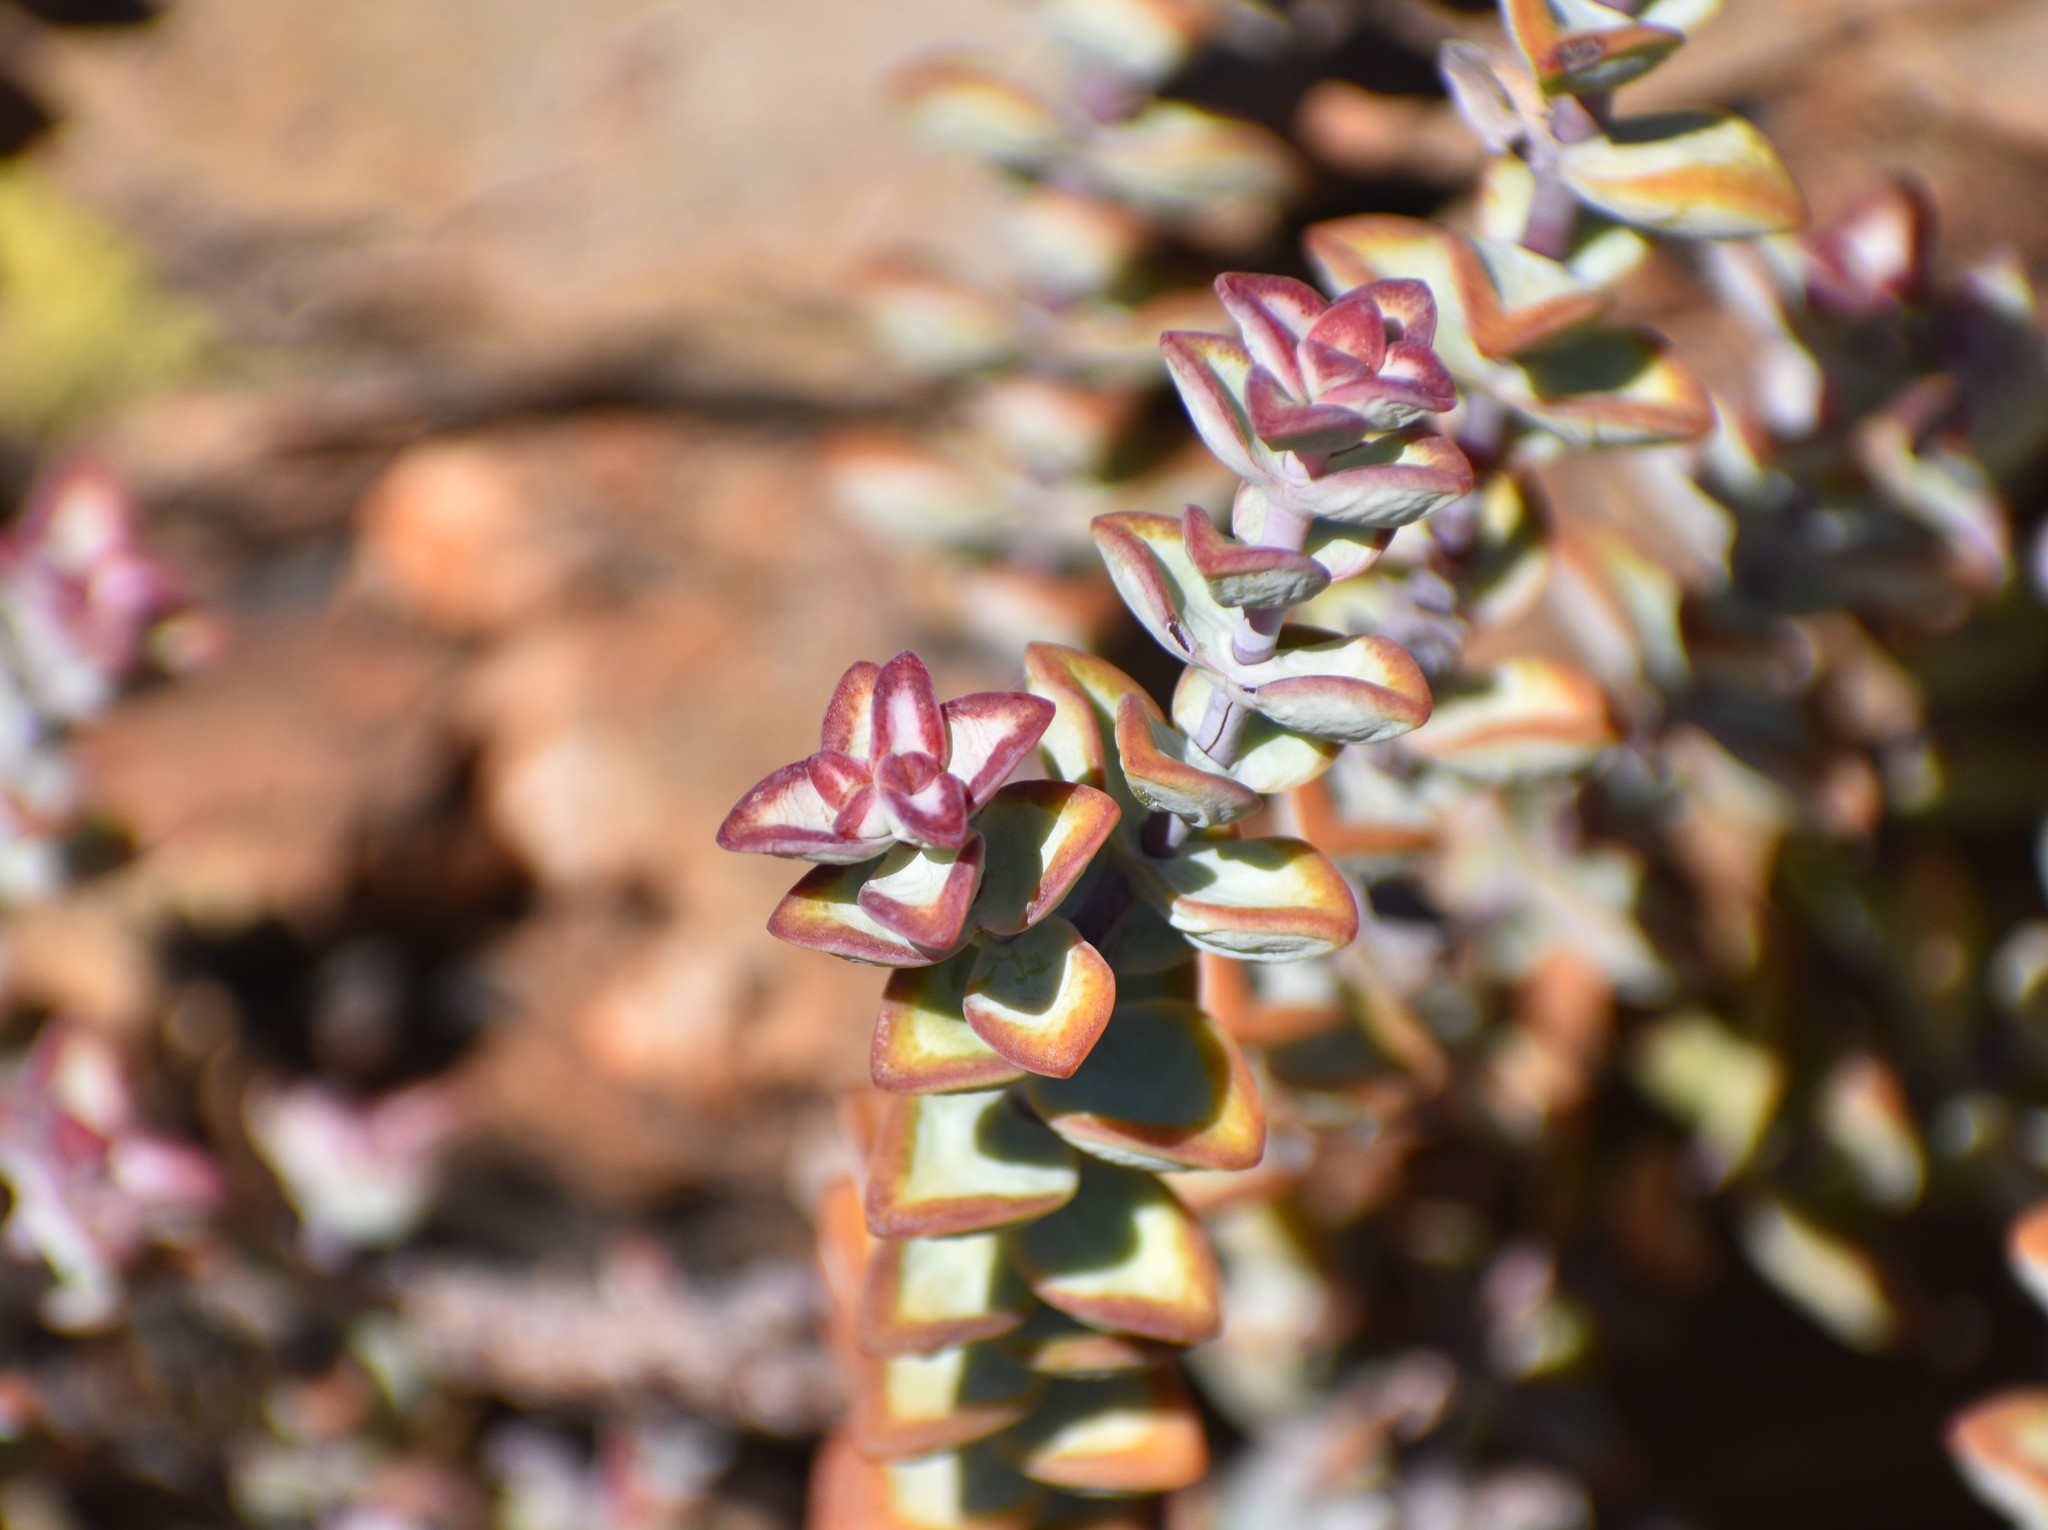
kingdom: Plantae
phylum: Tracheophyta
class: Magnoliopsida
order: Saxifragales
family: Crassulaceae
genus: Crassula
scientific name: Crassula rupestris
